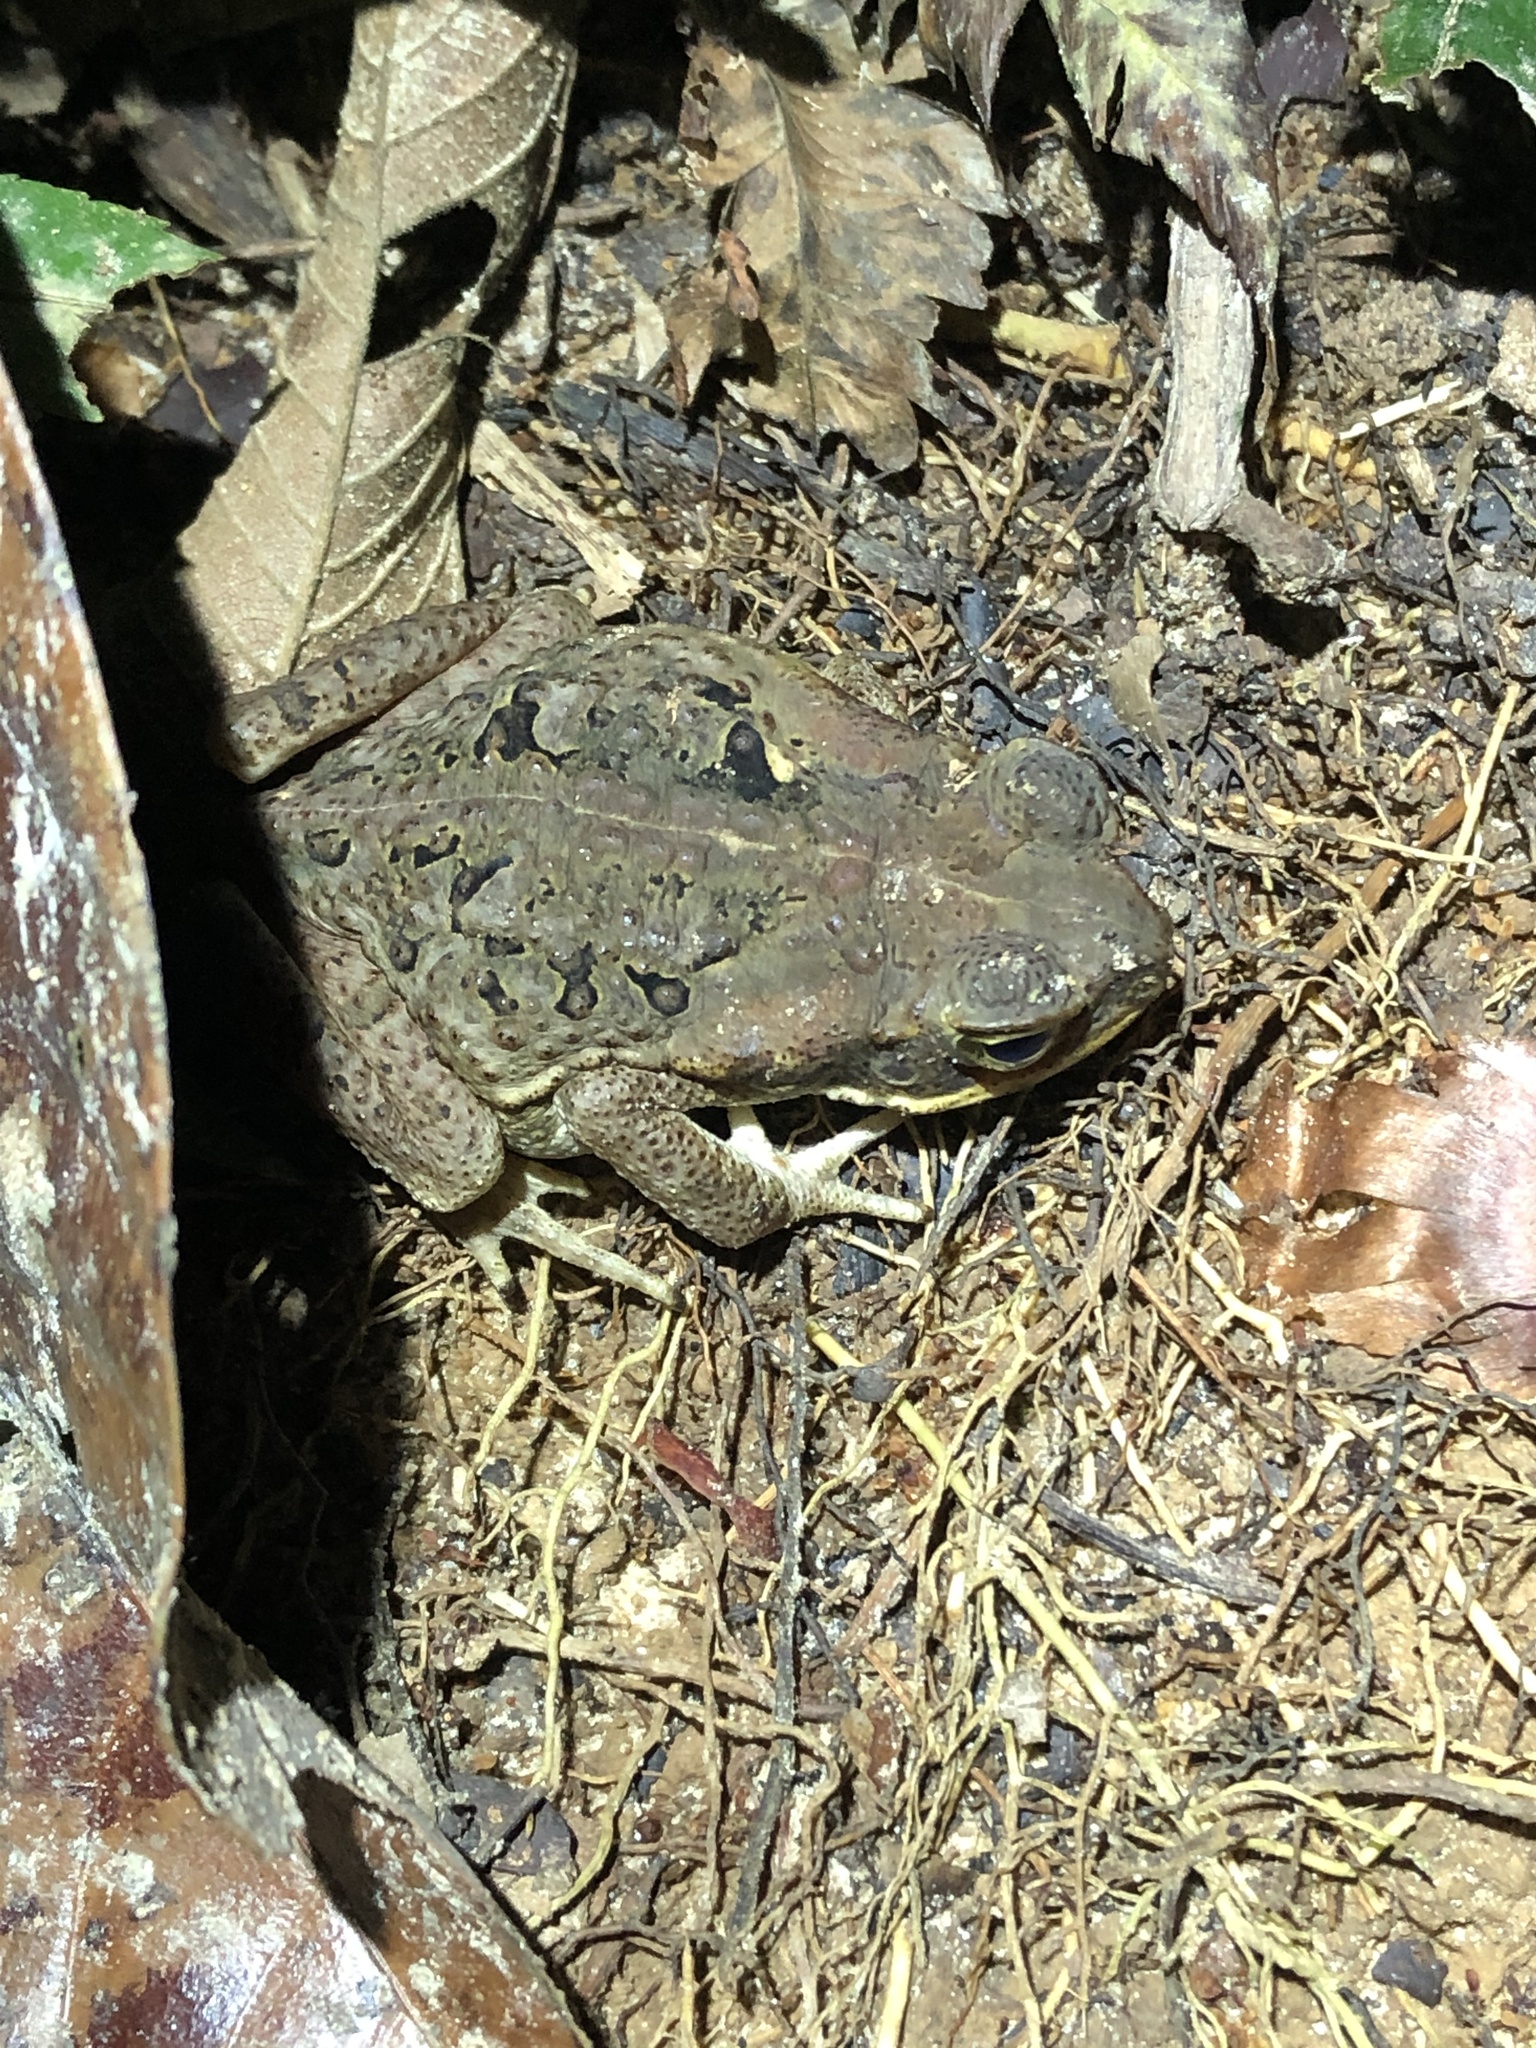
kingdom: Animalia
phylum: Chordata
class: Amphibia
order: Anura
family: Bufonidae
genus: Rhinella
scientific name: Rhinella marina
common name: Cane toad
